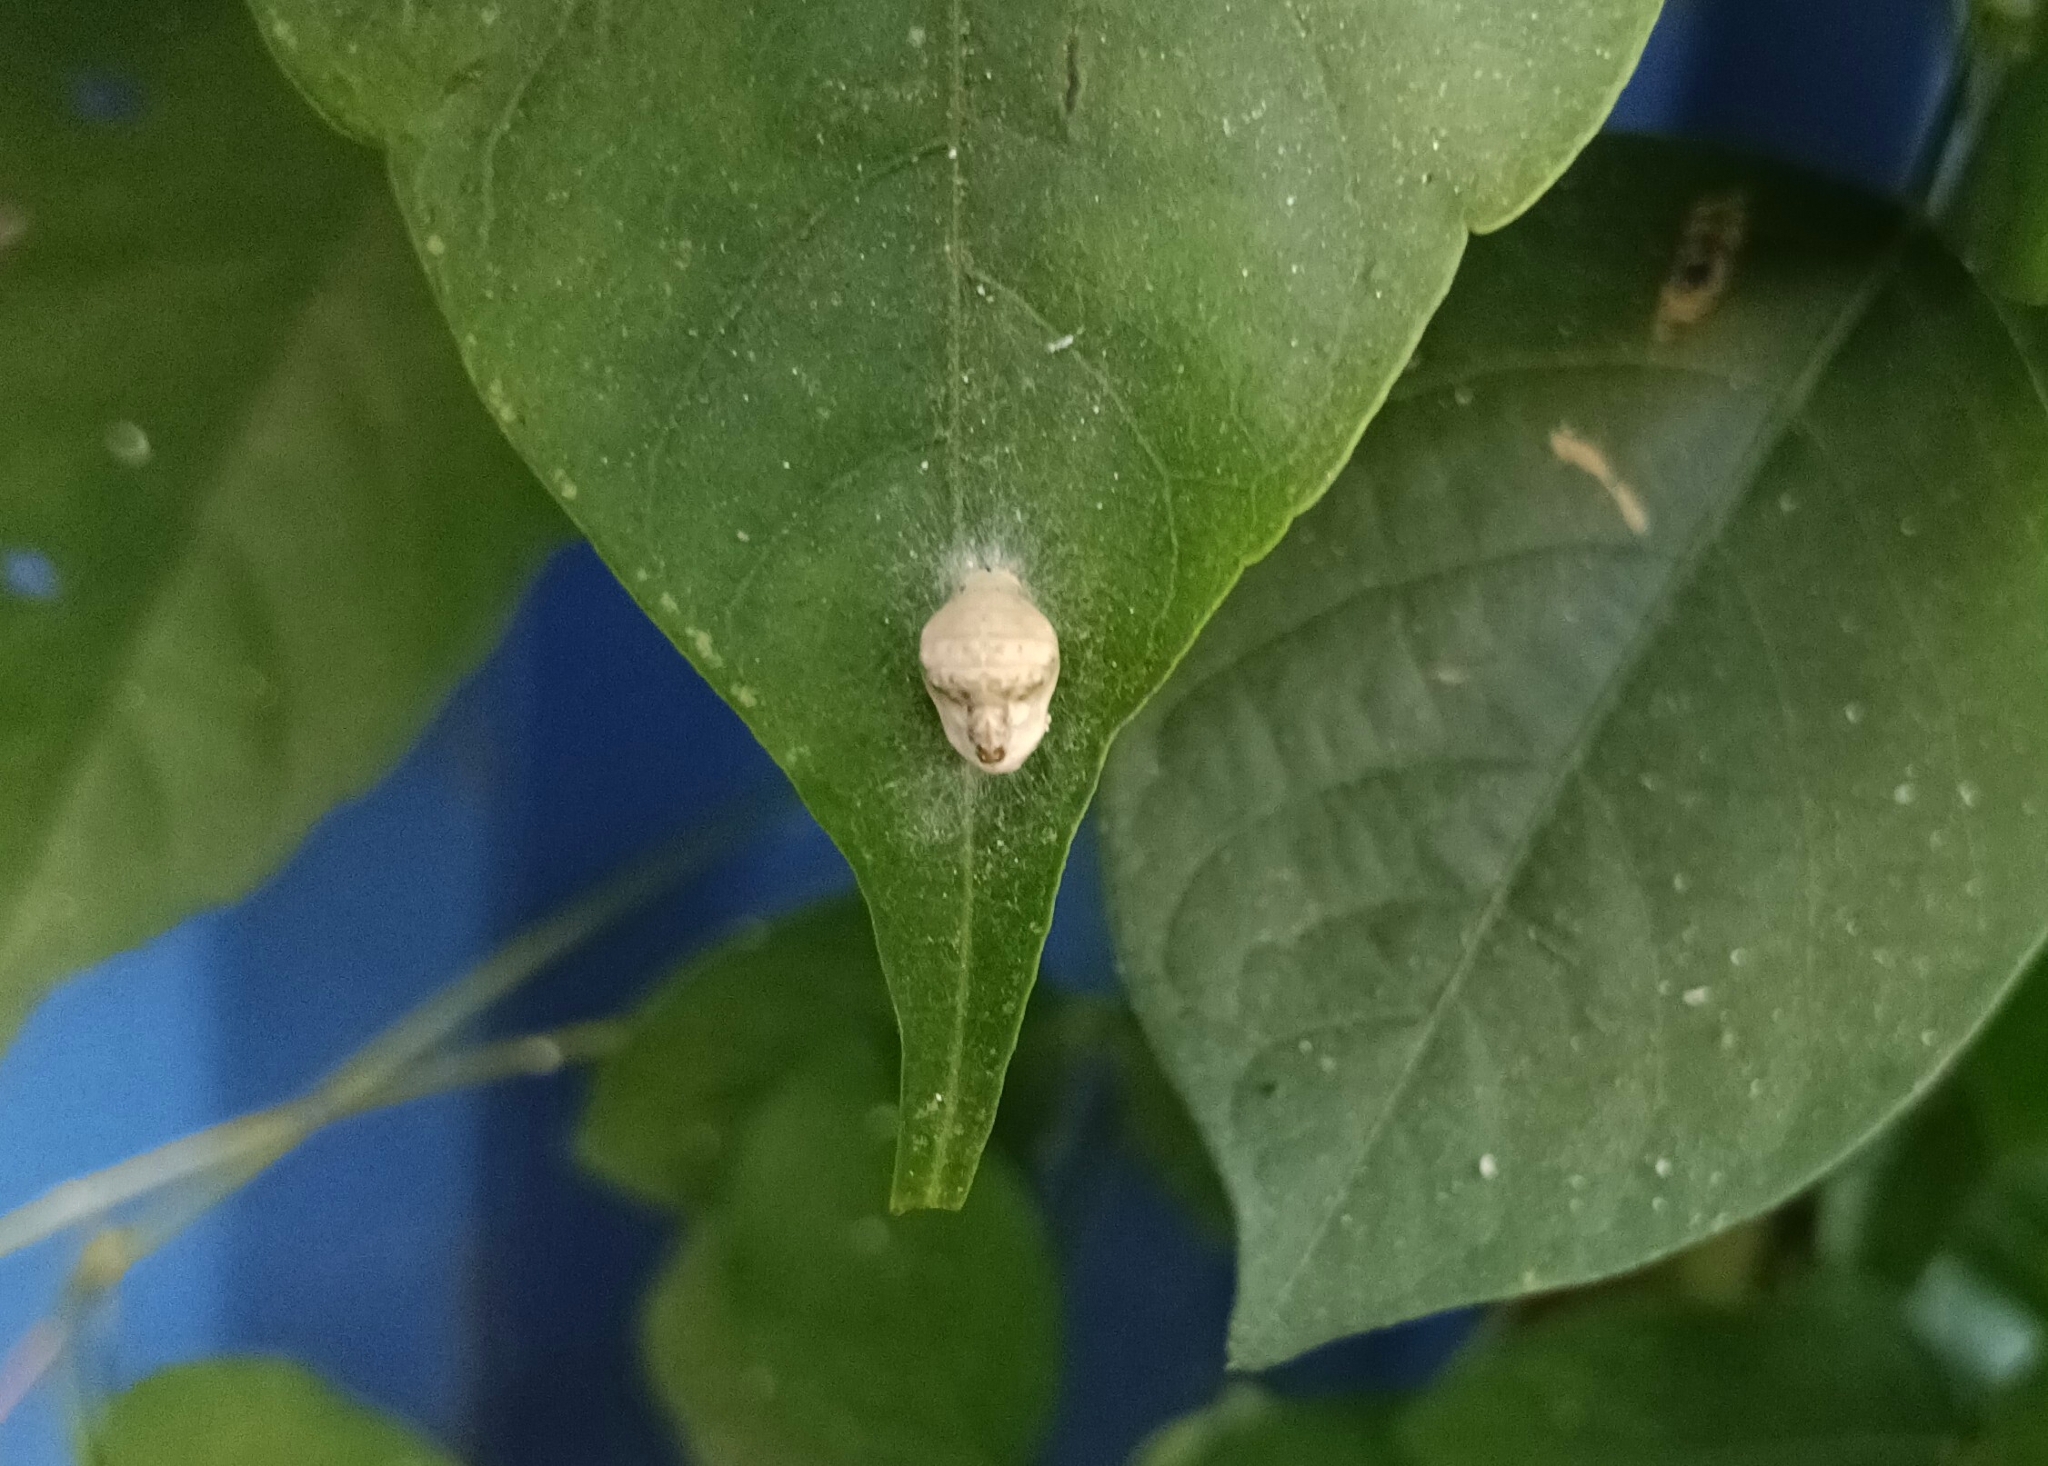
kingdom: Animalia
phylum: Arthropoda
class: Insecta
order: Lepidoptera
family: Lycaenidae
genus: Spalgis
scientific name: Spalgis epius
